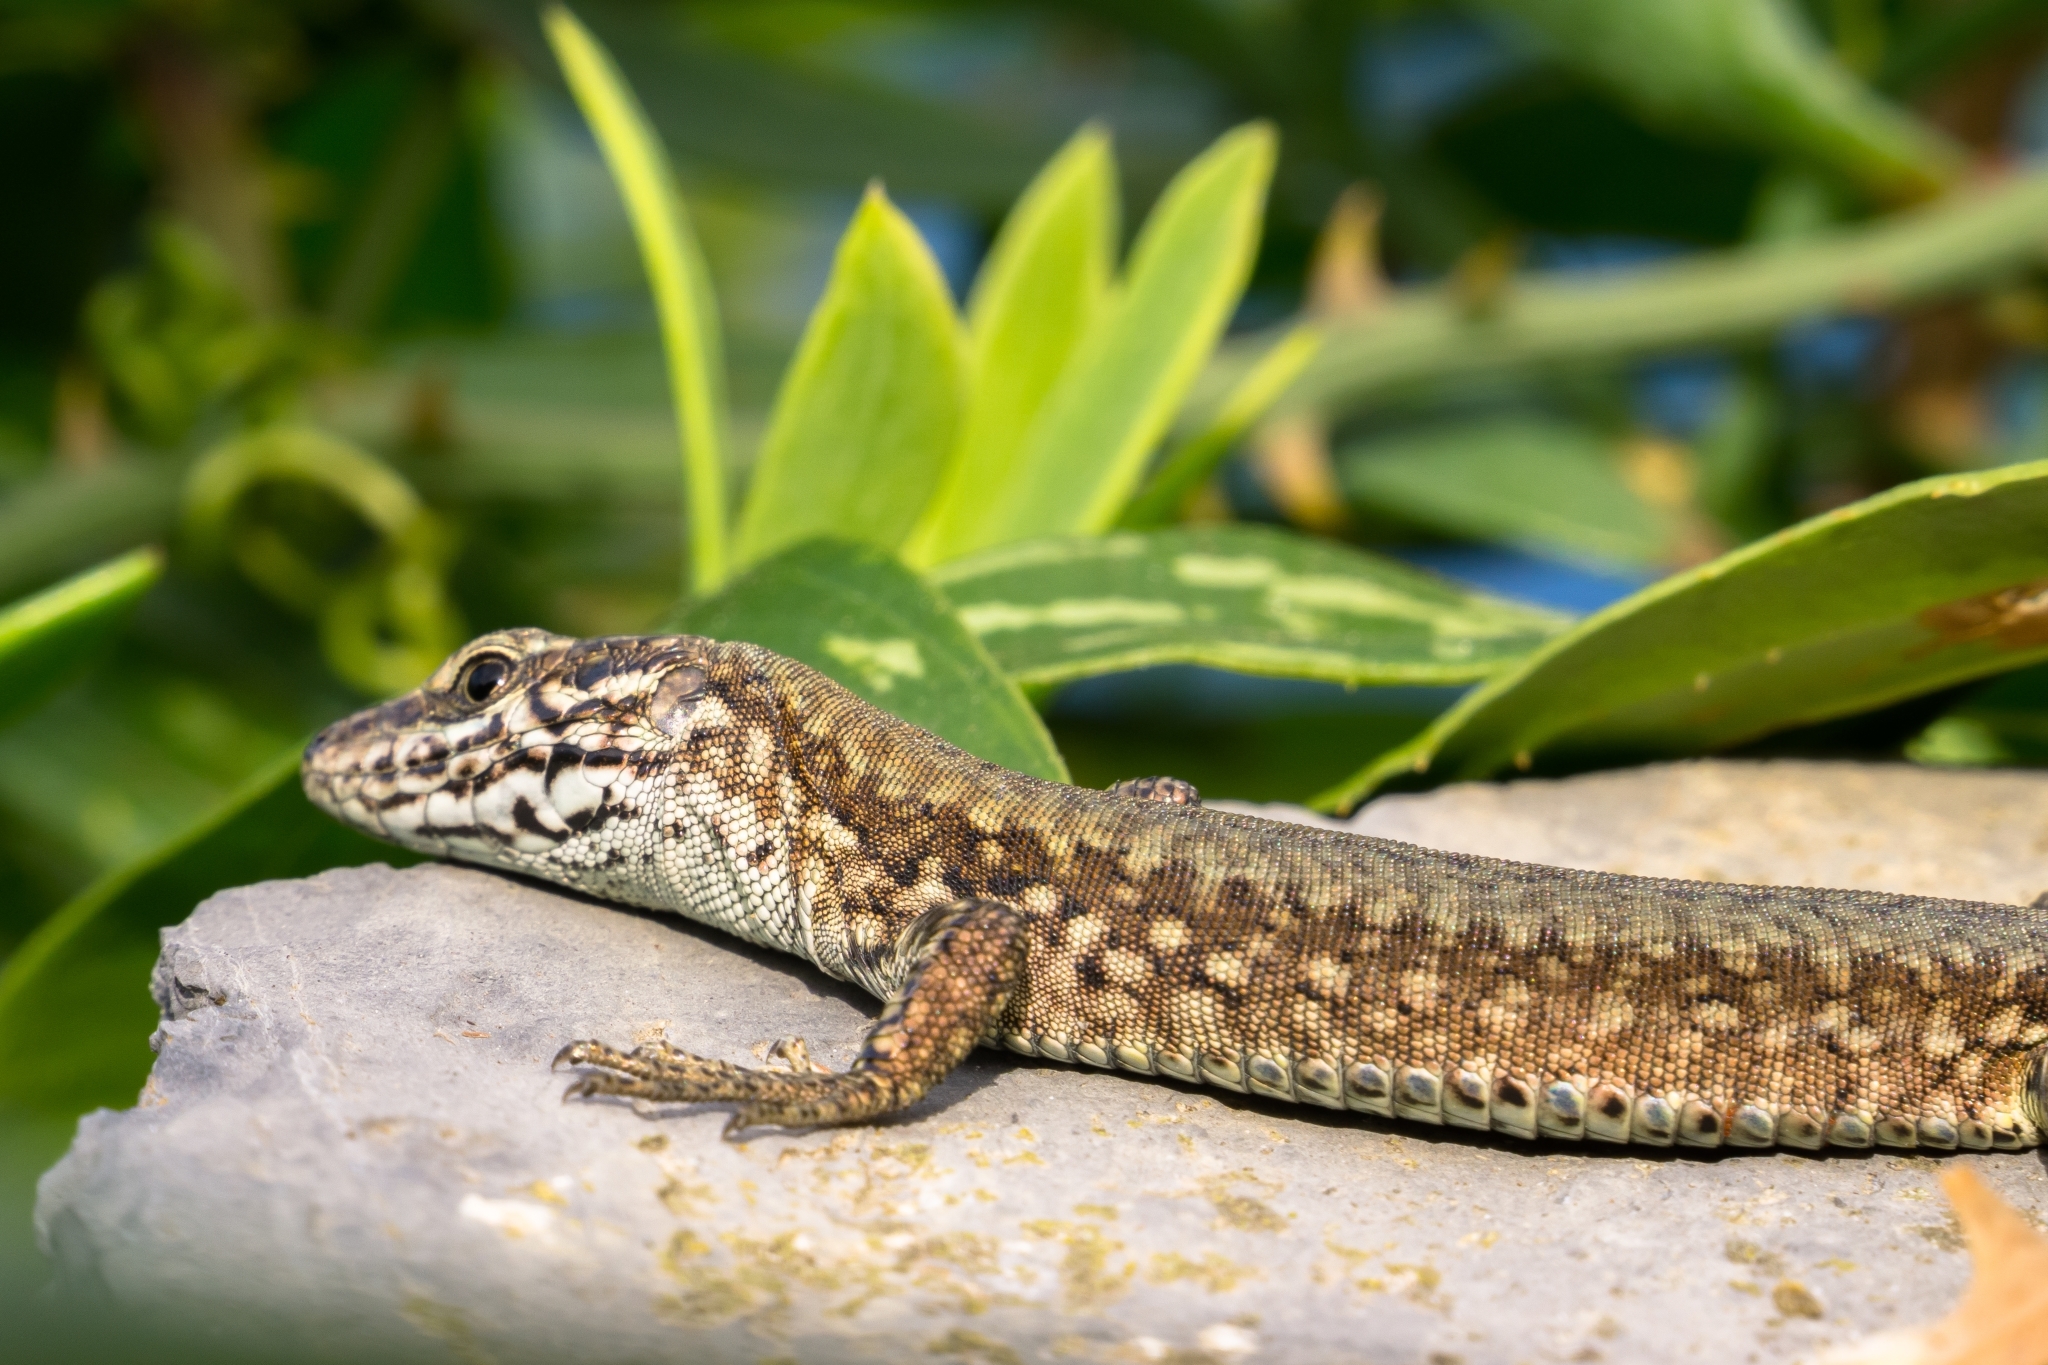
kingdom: Animalia
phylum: Chordata
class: Squamata
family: Lacertidae
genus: Podarcis
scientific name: Podarcis muralis
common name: Common wall lizard
